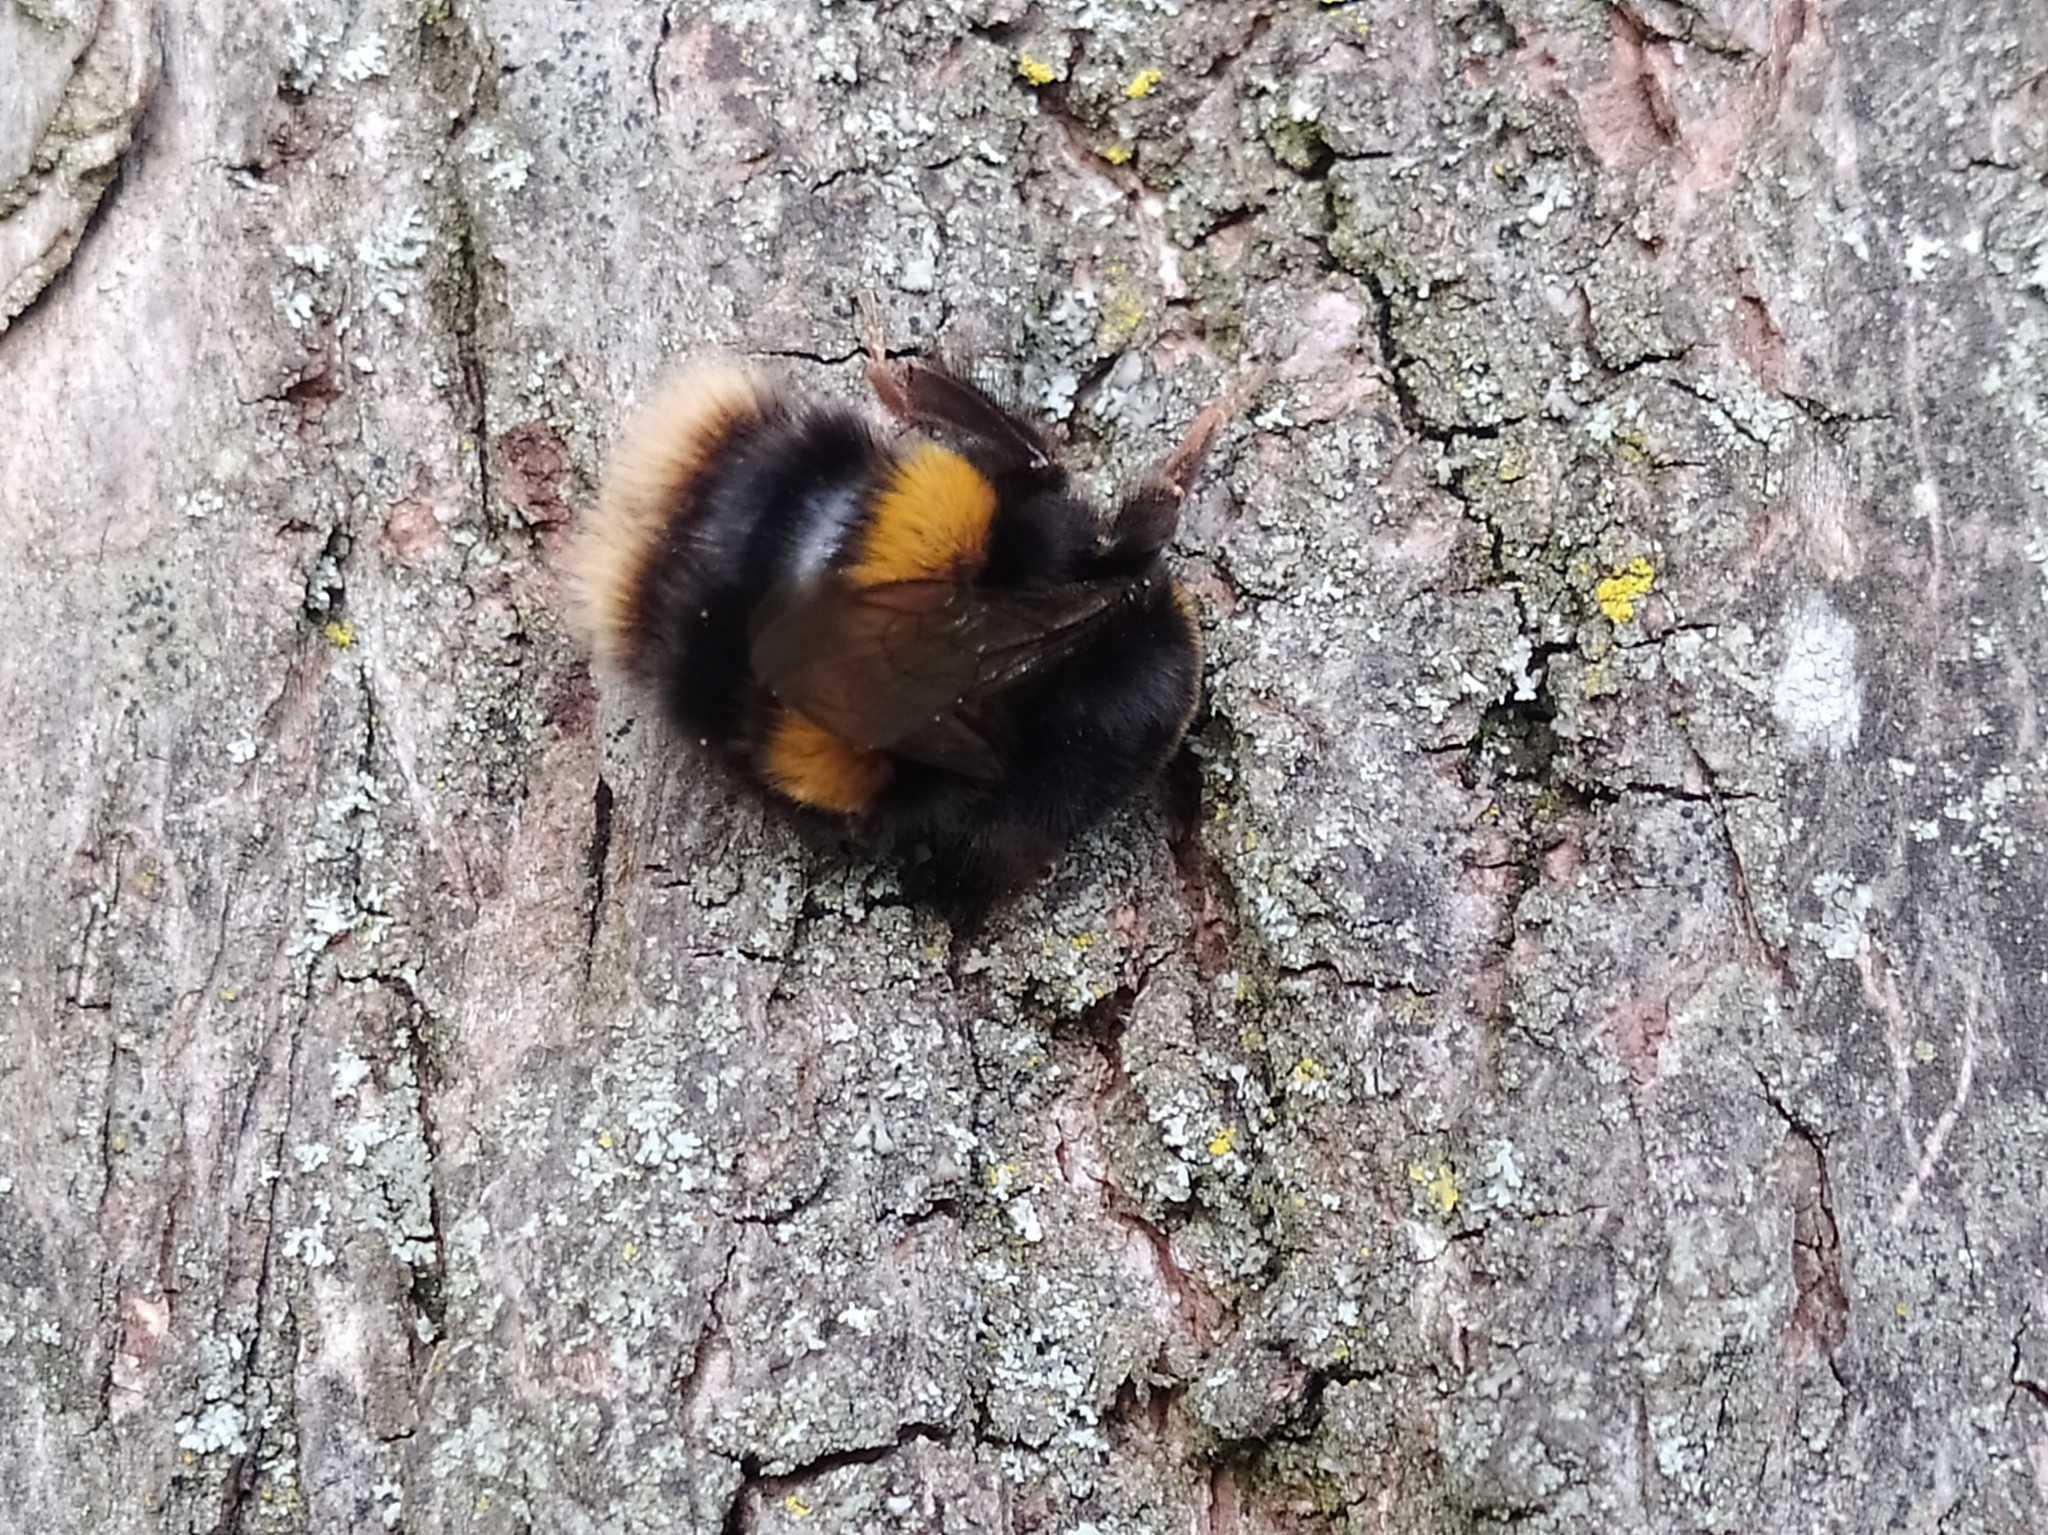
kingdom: Animalia
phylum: Arthropoda
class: Insecta
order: Hymenoptera
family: Apidae
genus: Bombus
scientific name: Bombus terrestris
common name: Buff-tailed bumblebee
